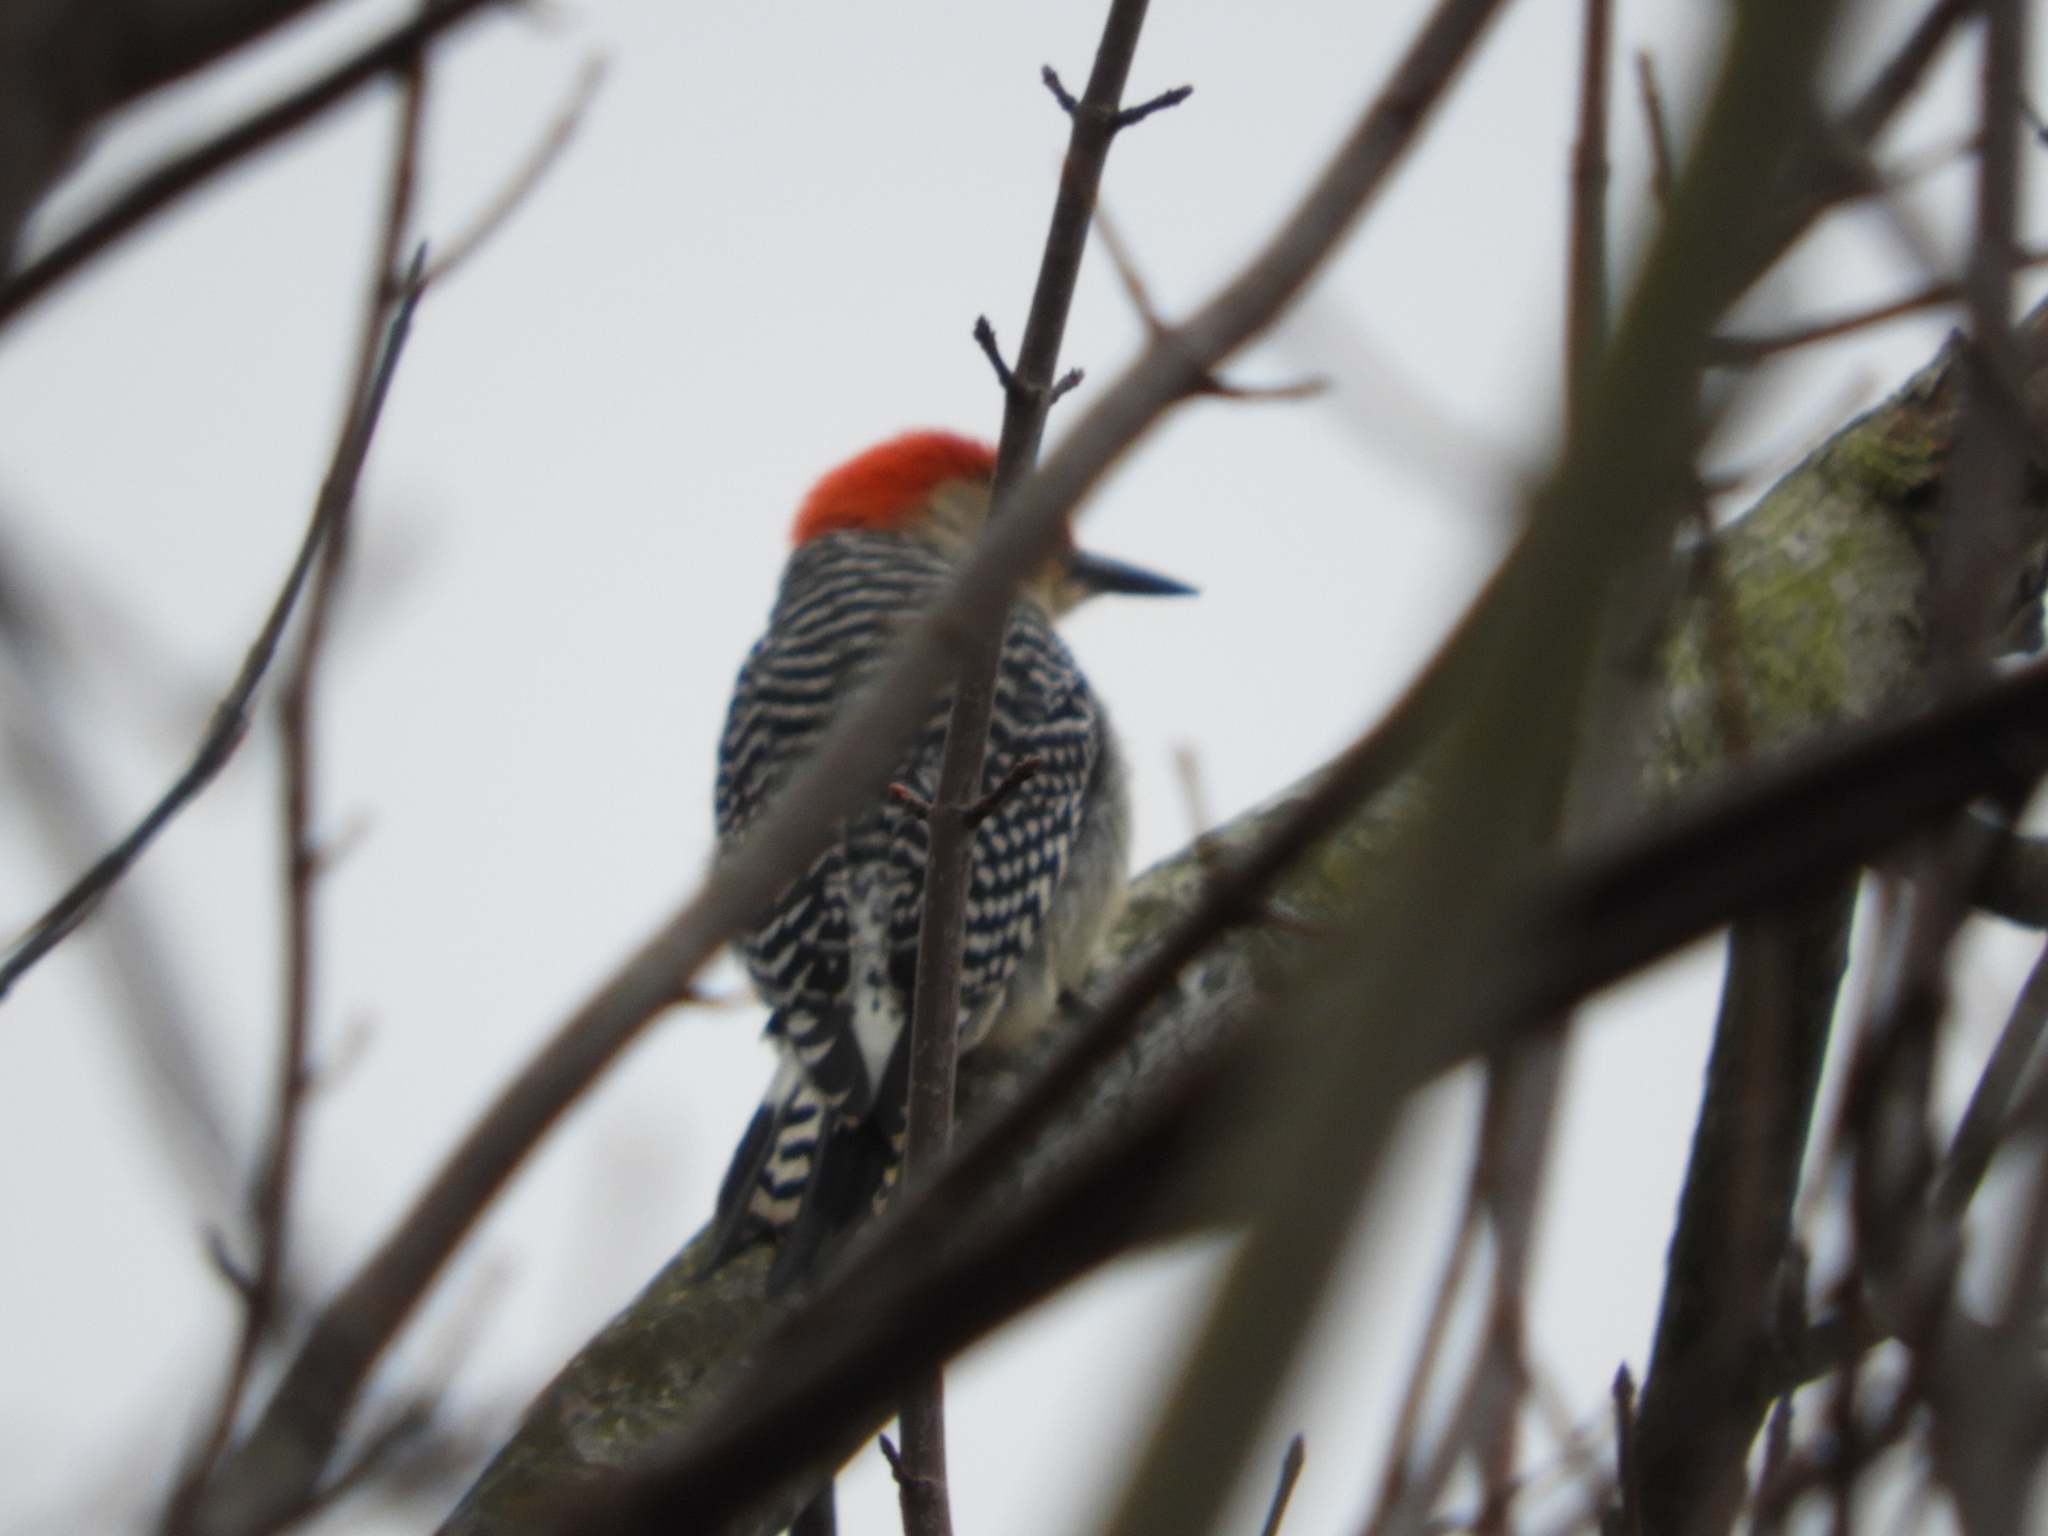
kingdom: Animalia
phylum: Chordata
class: Aves
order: Piciformes
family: Picidae
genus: Melanerpes
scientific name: Melanerpes carolinus
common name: Red-bellied woodpecker
